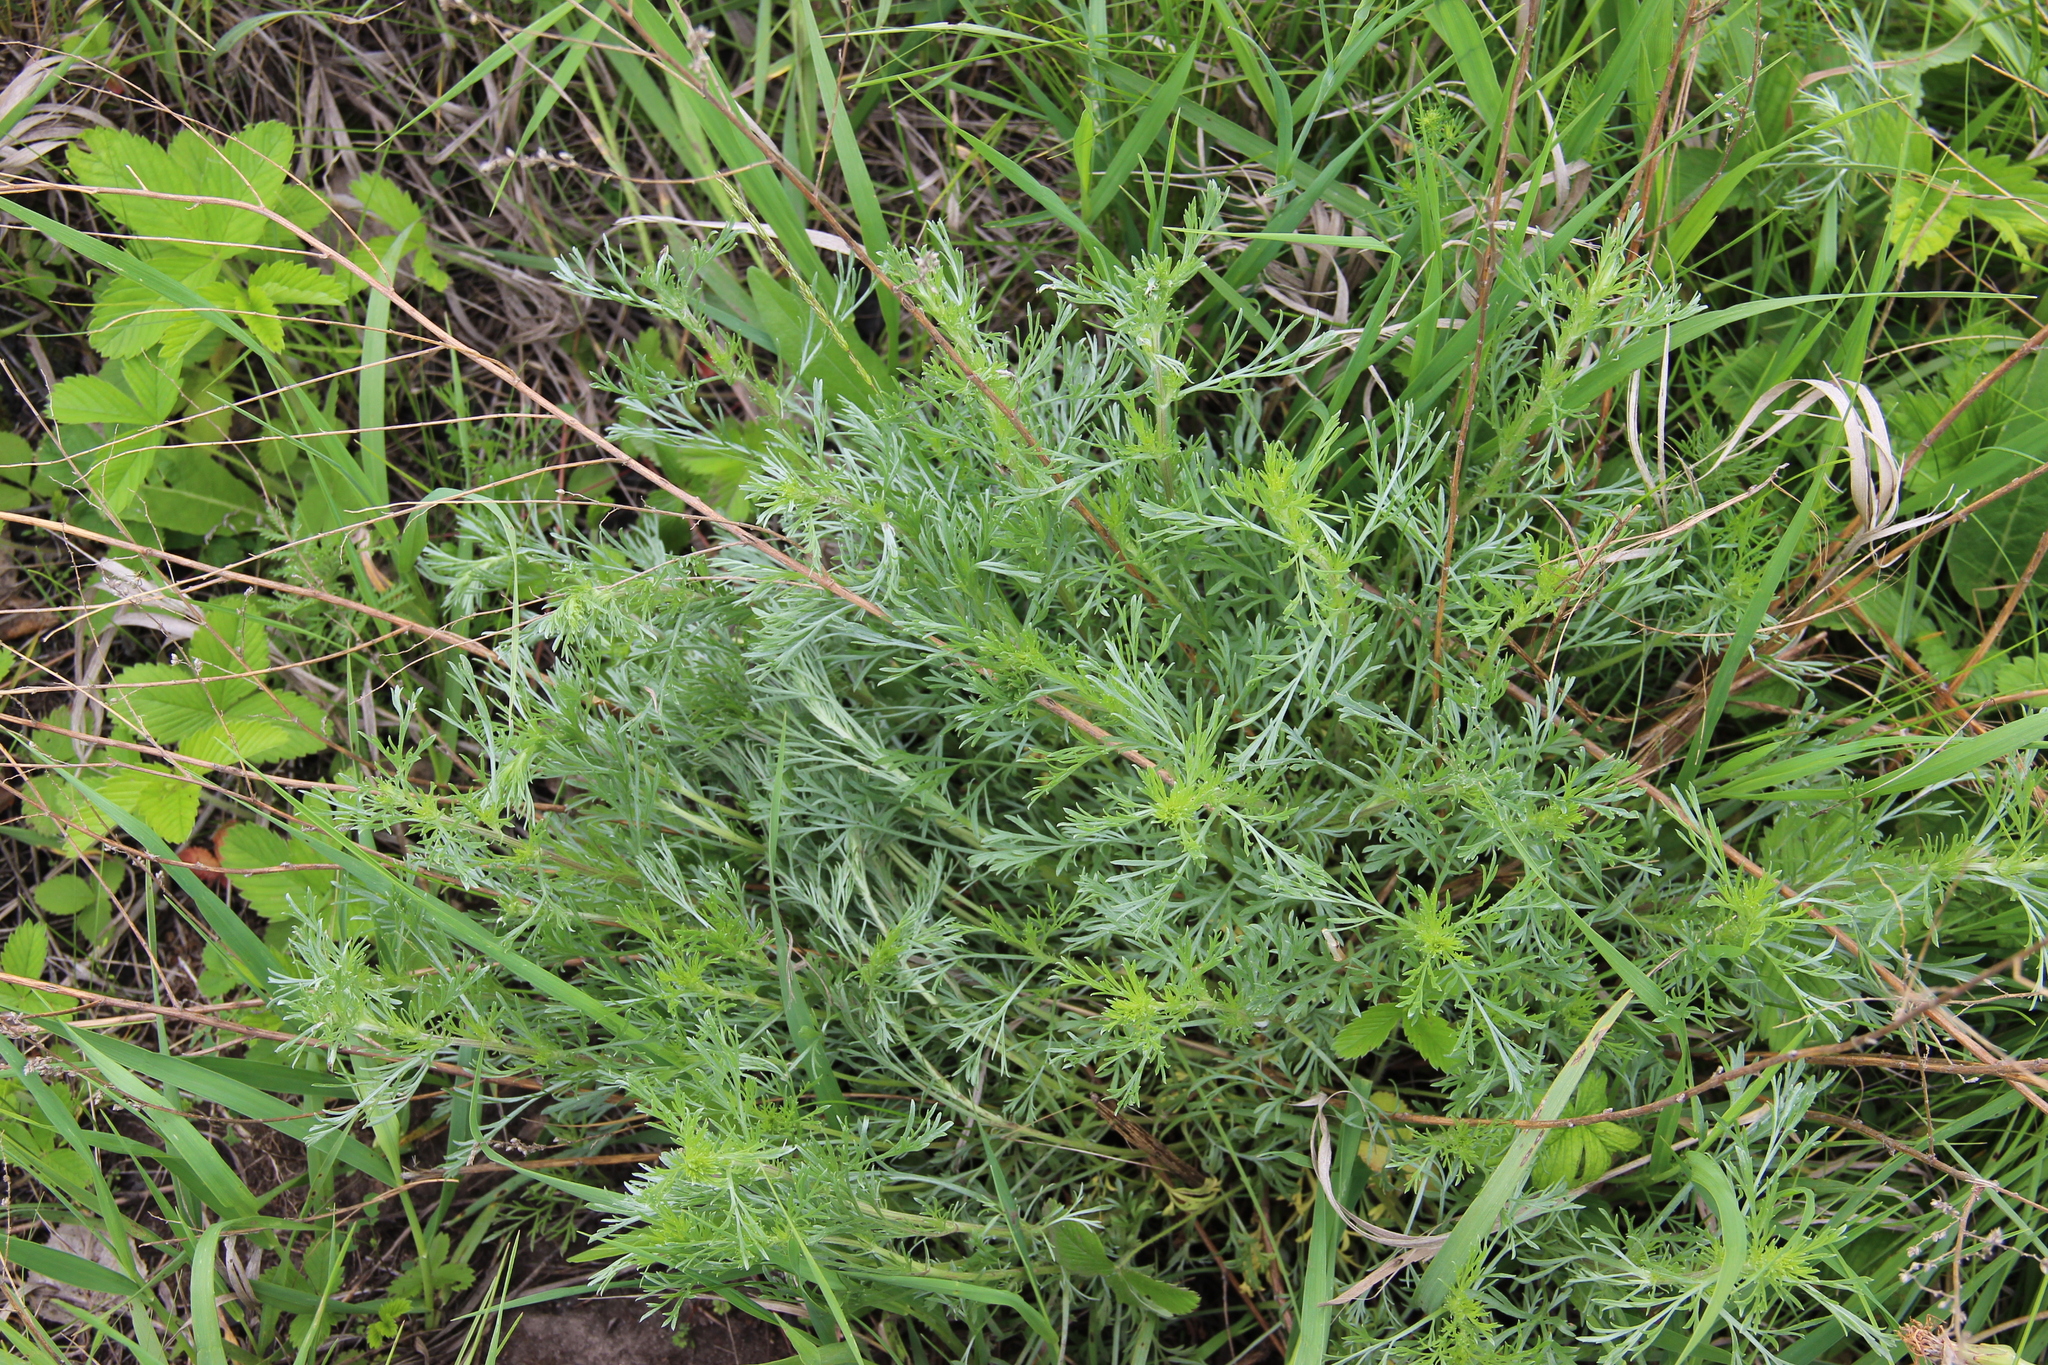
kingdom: Plantae
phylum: Tracheophyta
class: Magnoliopsida
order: Asterales
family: Asteraceae
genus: Artemisia
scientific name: Artemisia campestris
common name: Field wormwood
